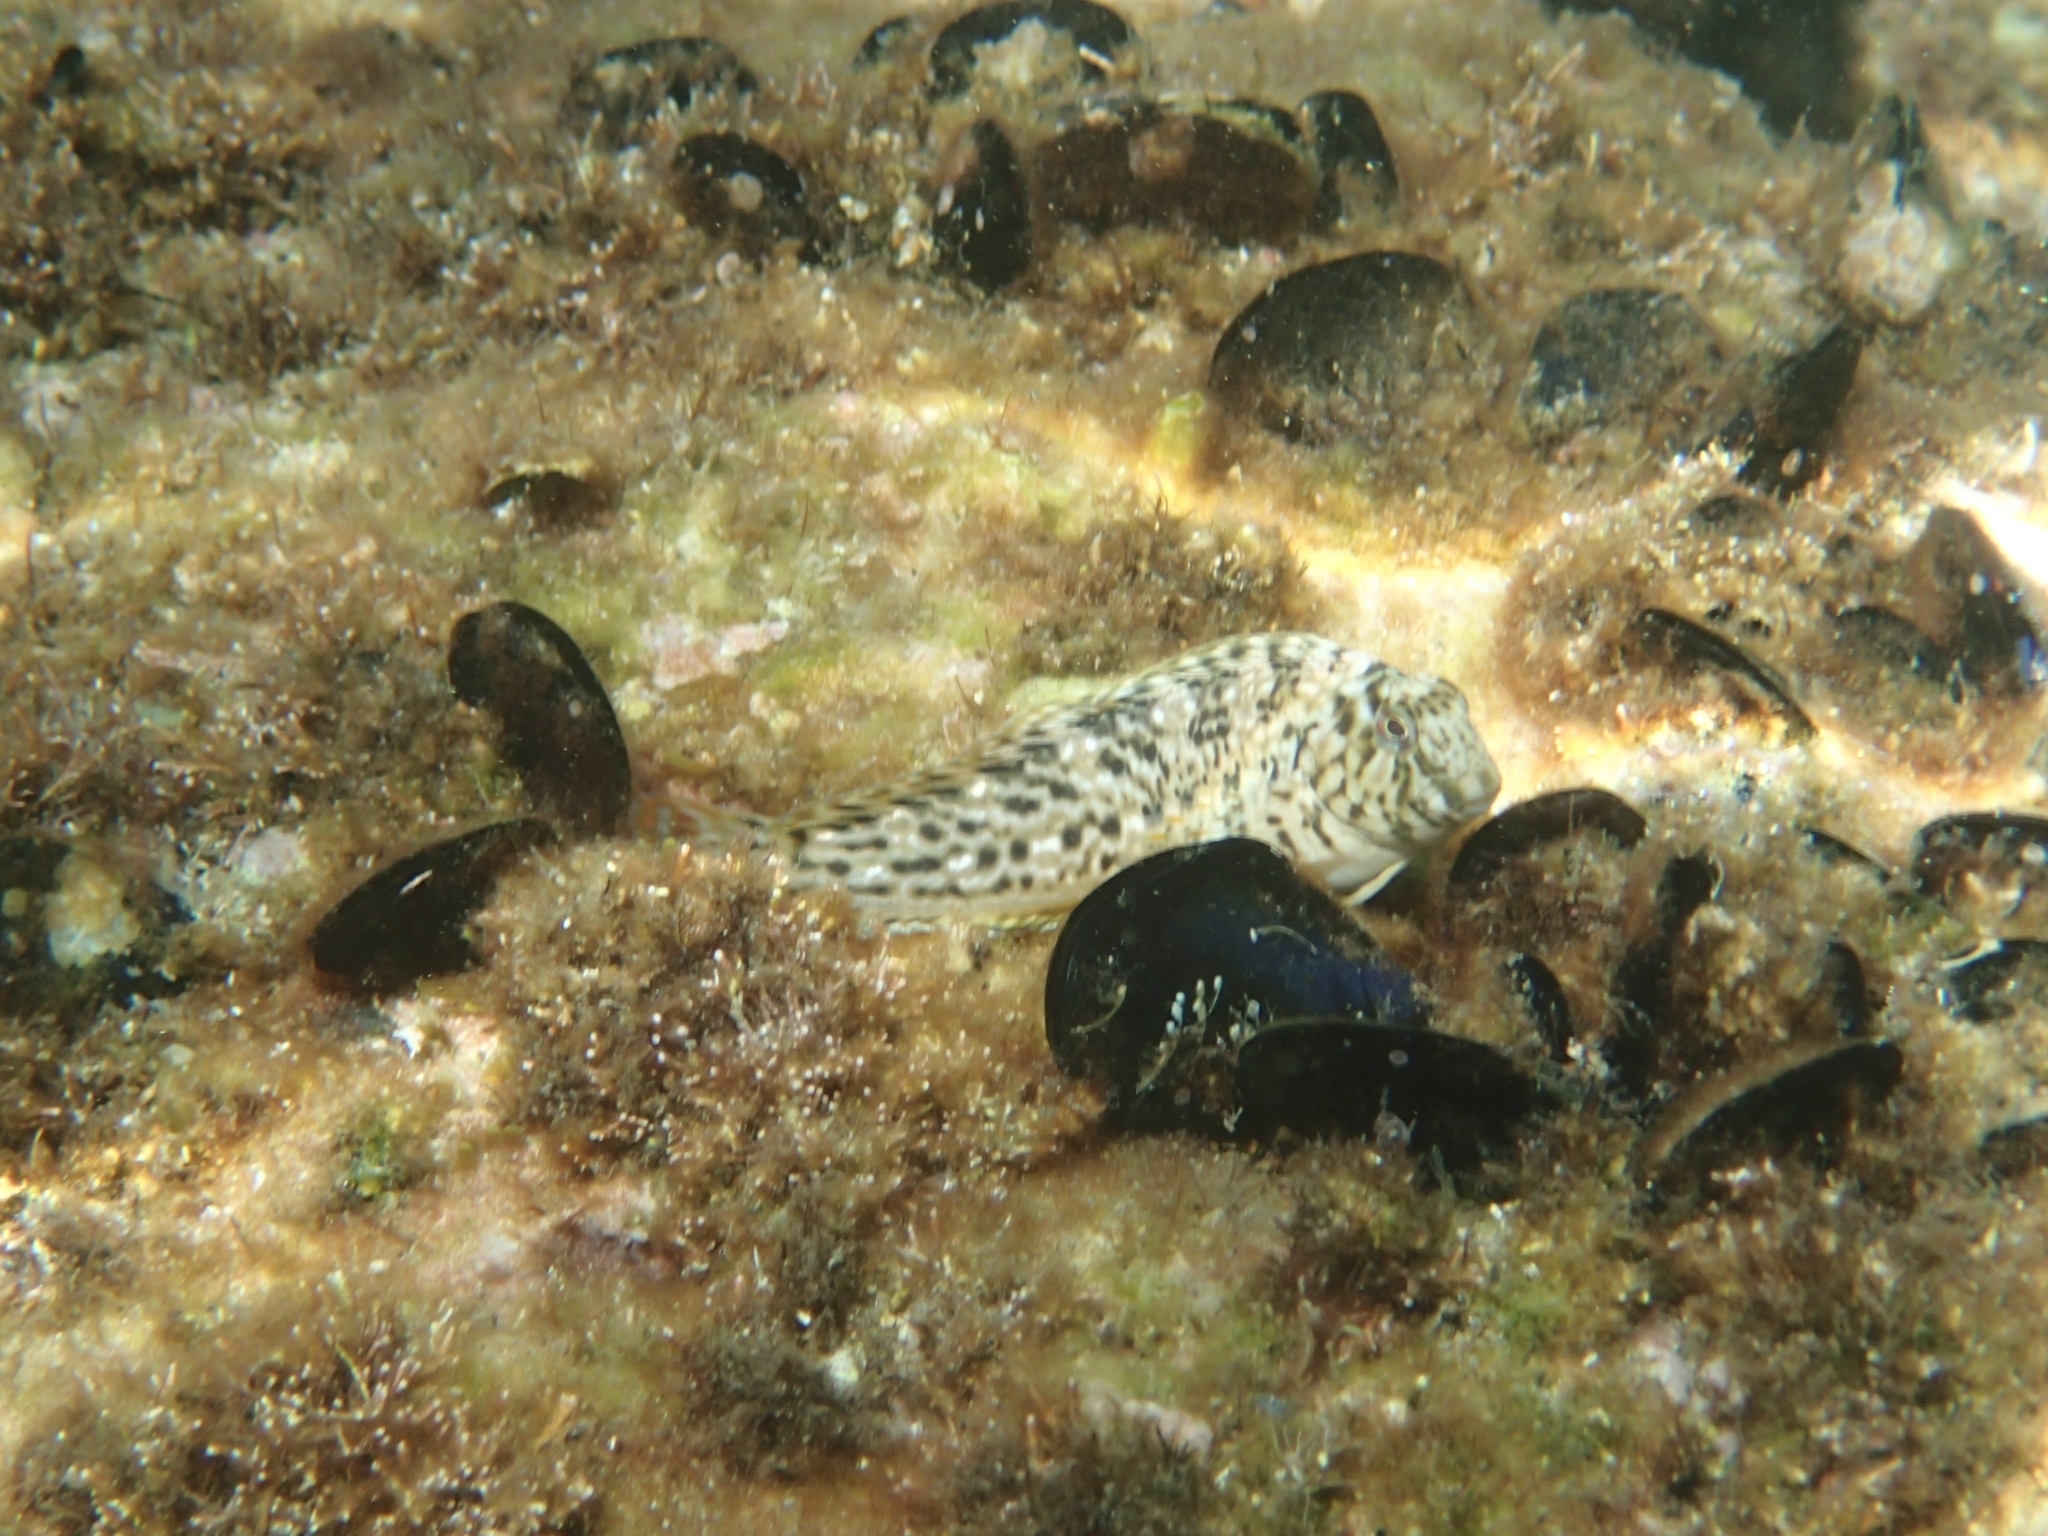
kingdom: Animalia
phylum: Chordata
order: Perciformes
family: Blenniidae
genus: Parablennius
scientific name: Parablennius sanguinolentus
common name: Black sea blenny
